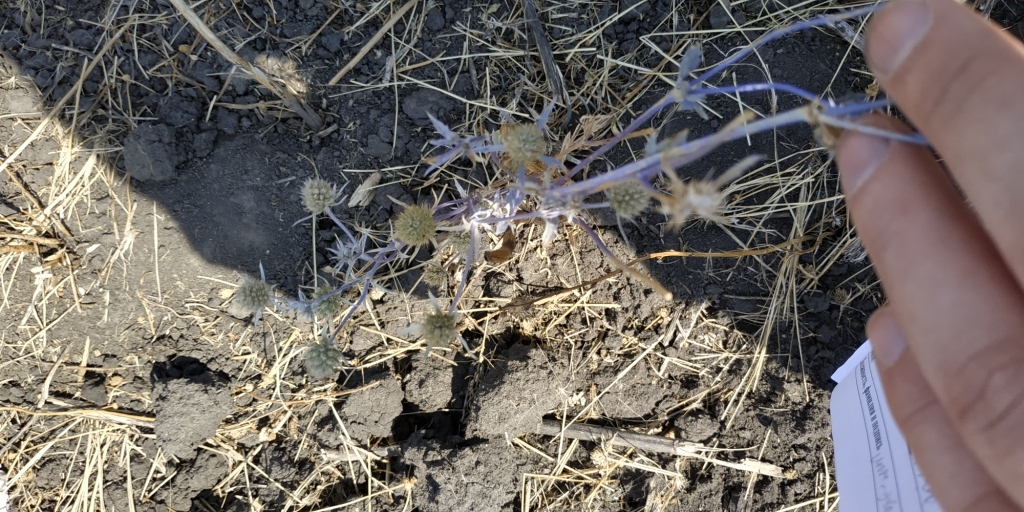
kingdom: Plantae
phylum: Tracheophyta
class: Magnoliopsida
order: Apiales
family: Apiaceae
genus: Eryngium
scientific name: Eryngium planum
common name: Blue eryngo
